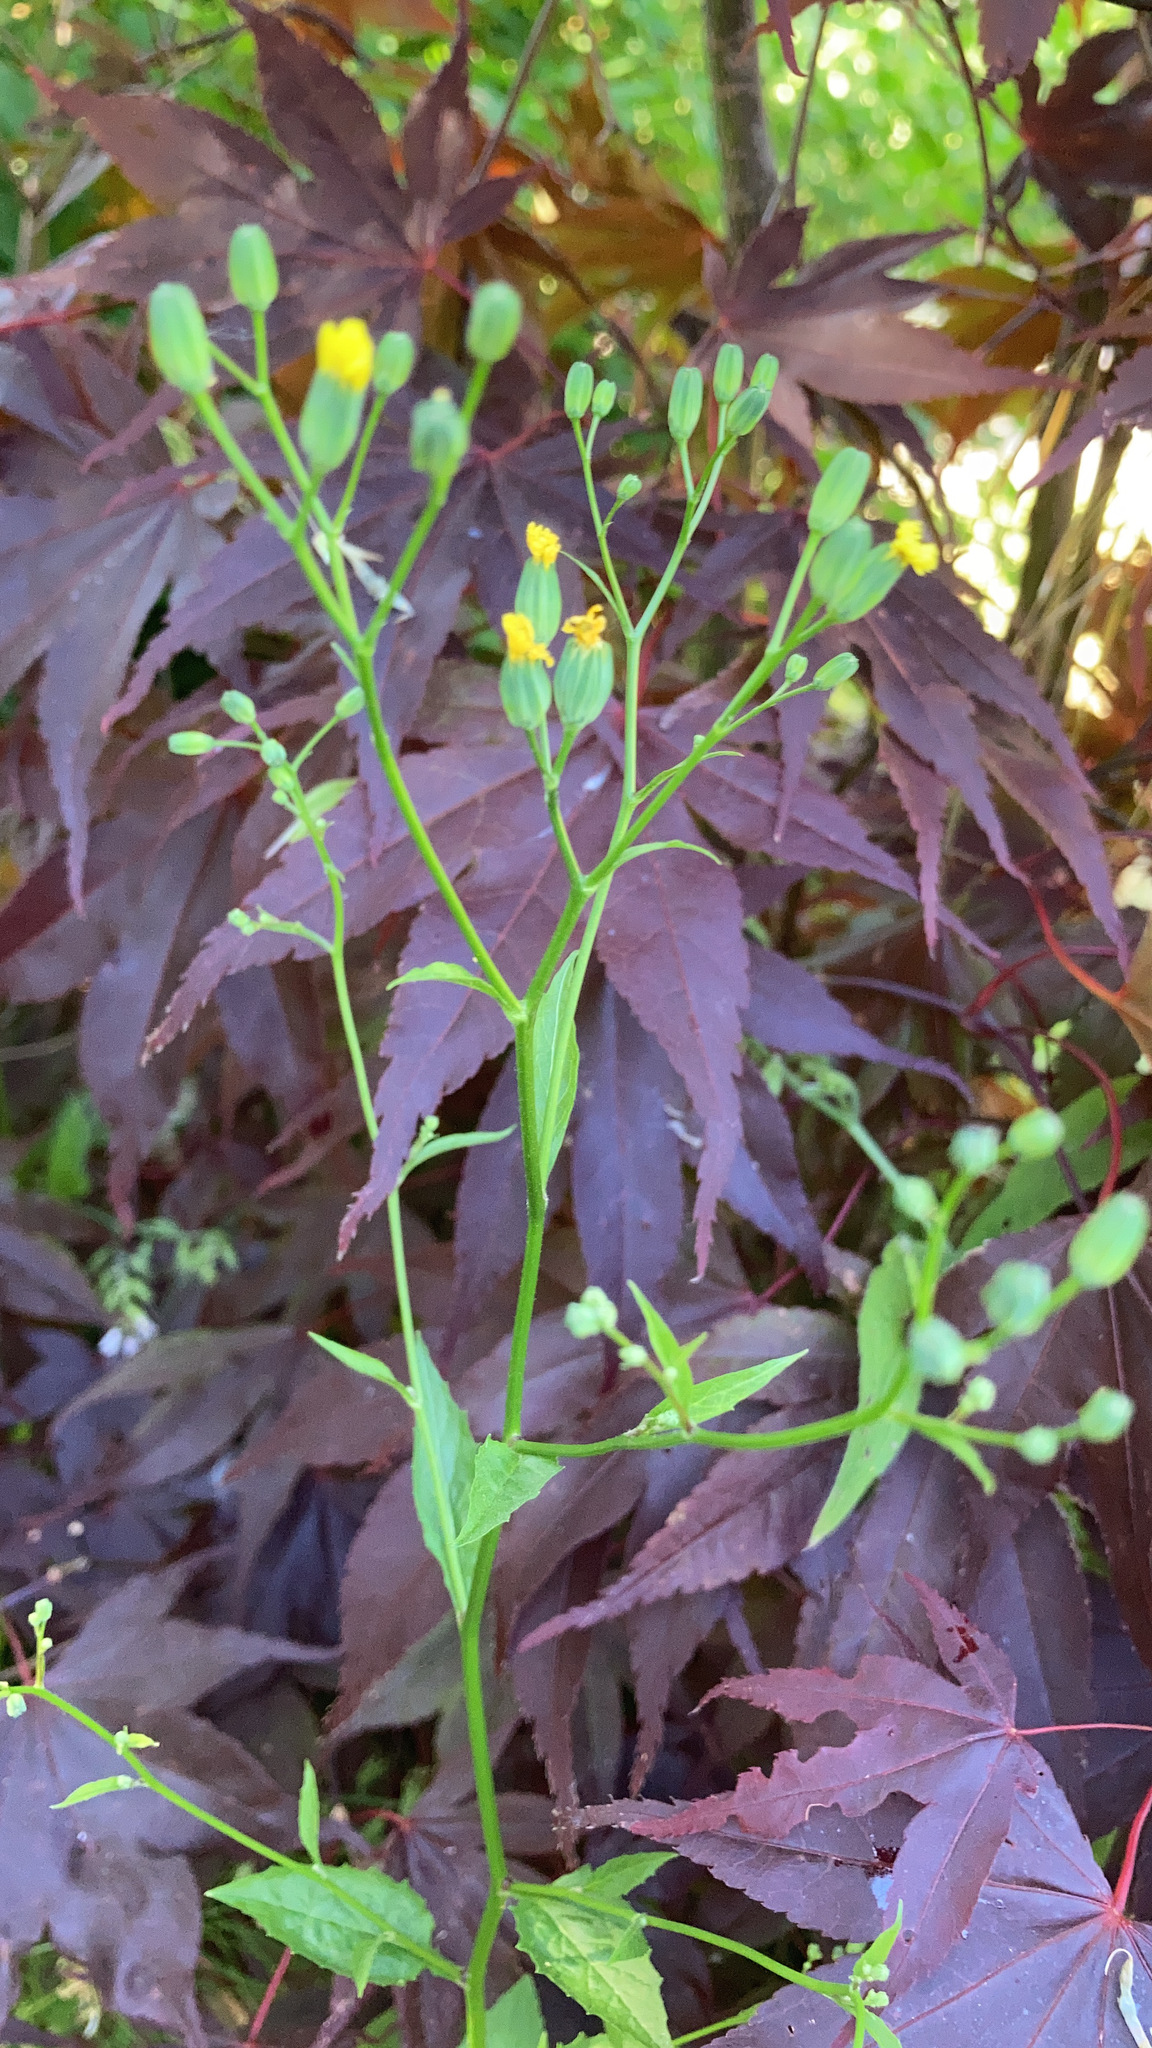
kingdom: Plantae
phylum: Tracheophyta
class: Magnoliopsida
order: Asterales
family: Asteraceae
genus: Lapsana
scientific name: Lapsana communis
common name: Nipplewort
